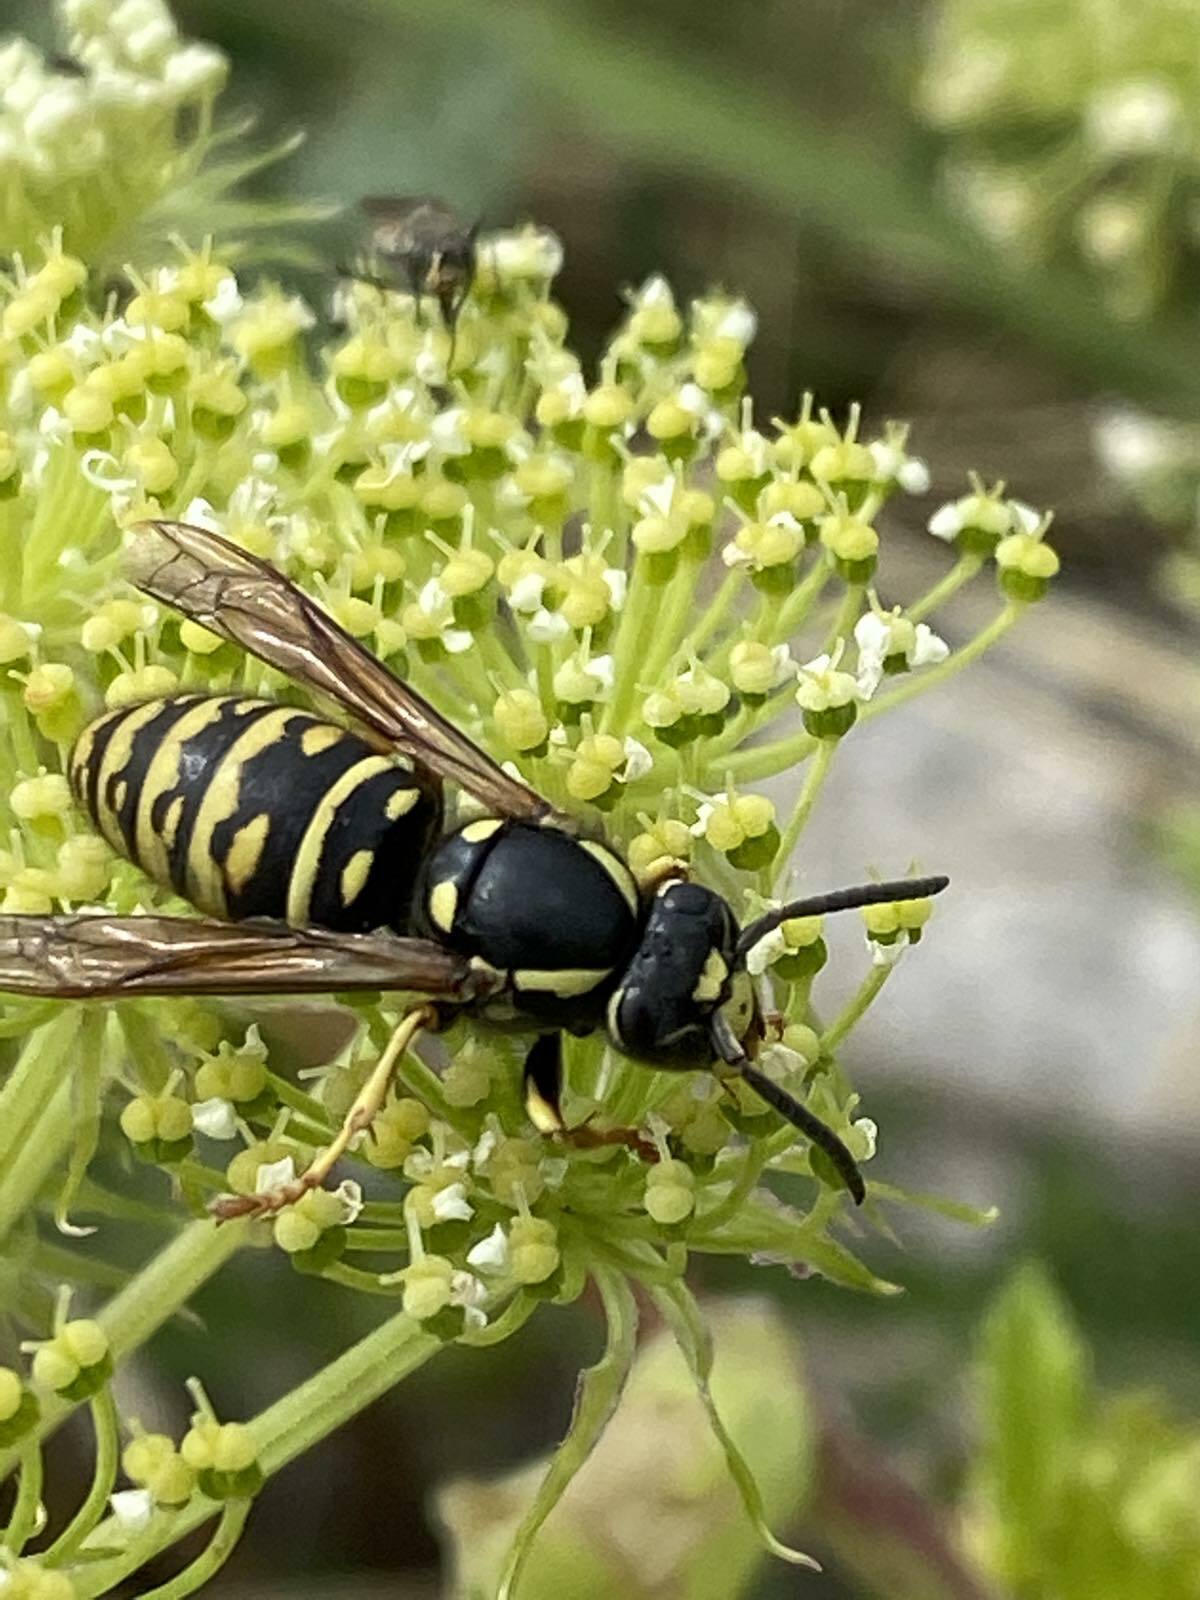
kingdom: Animalia
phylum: Arthropoda
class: Insecta
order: Hymenoptera
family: Vespidae
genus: Vespula
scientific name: Vespula austriaca
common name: Cuckoo wasp
